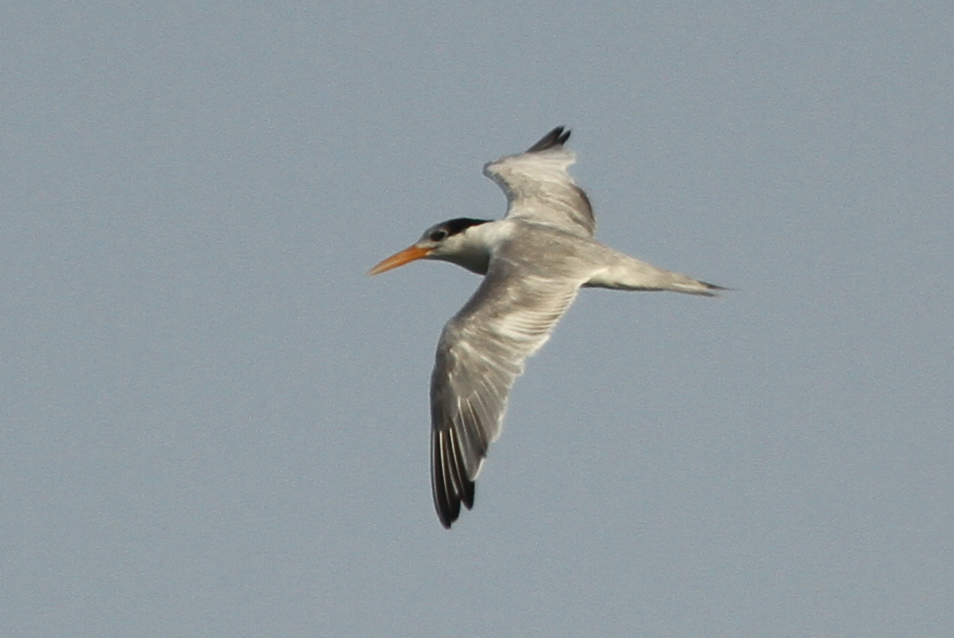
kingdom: Animalia
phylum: Chordata
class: Aves
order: Charadriiformes
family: Laridae
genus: Thalasseus
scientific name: Thalasseus bengalensis
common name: Lesser crested tern
